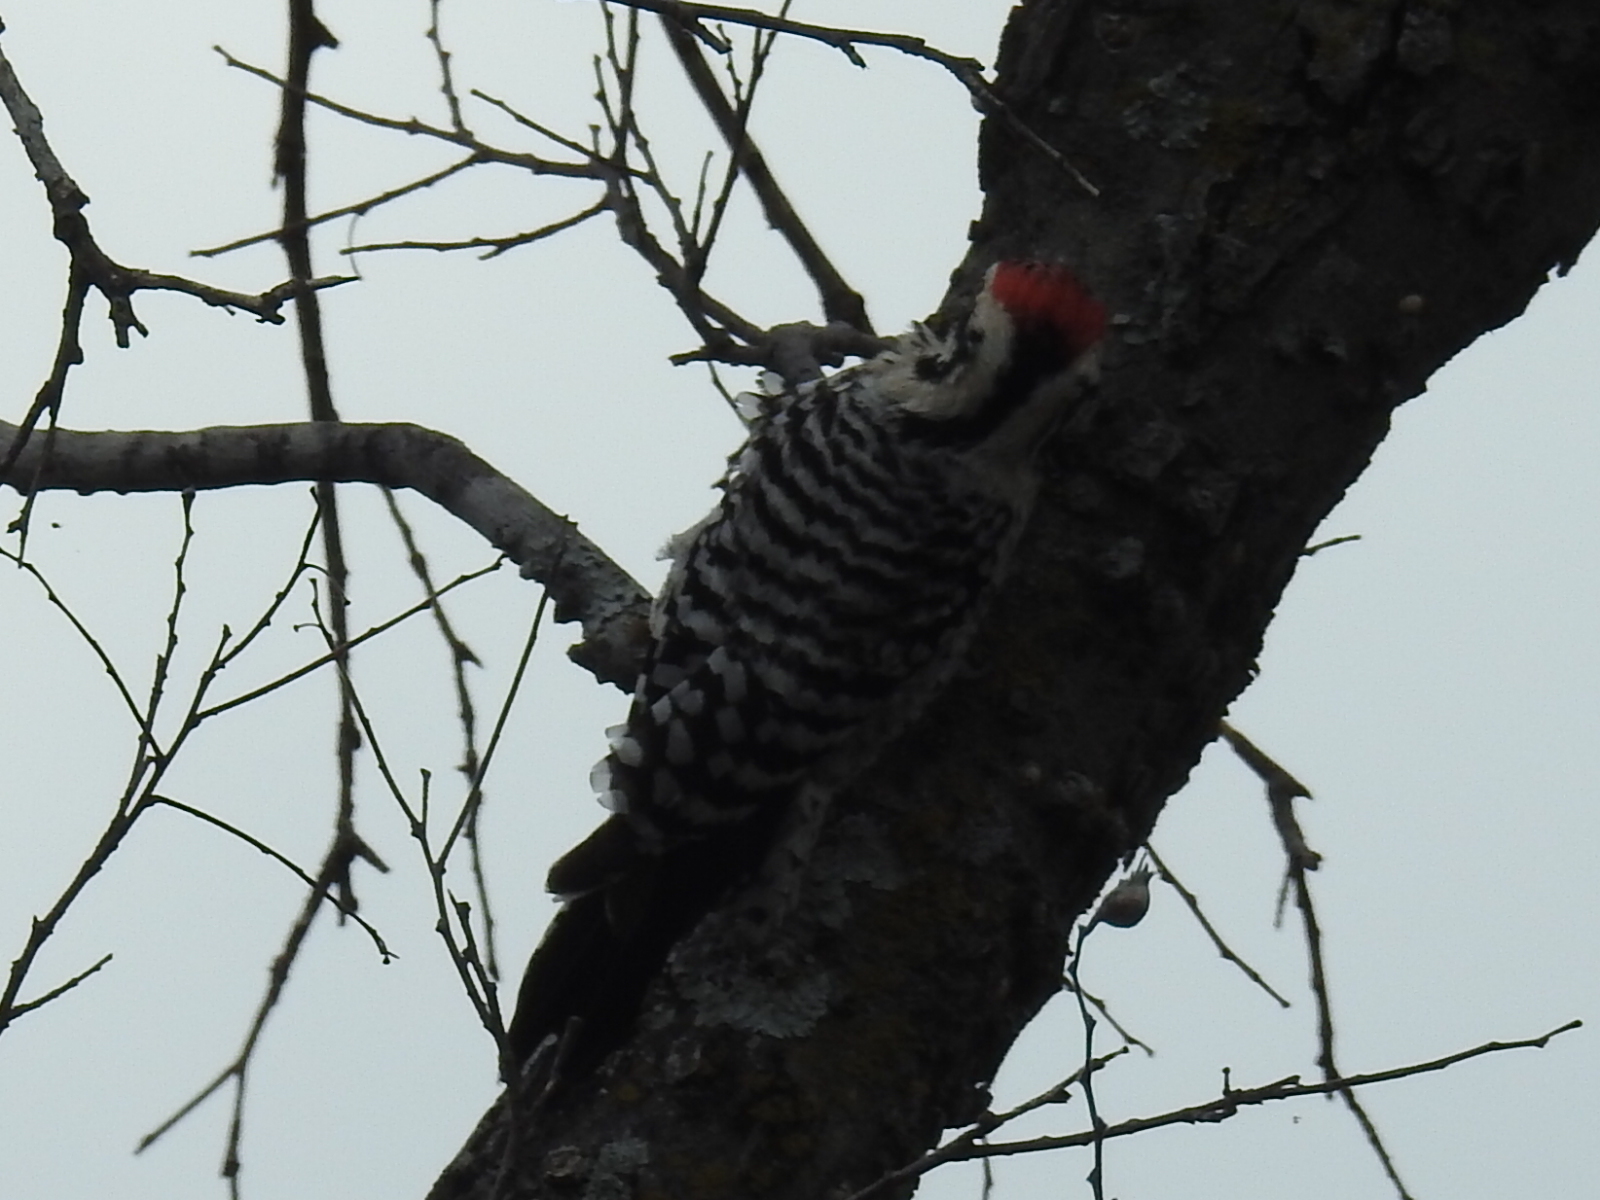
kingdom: Animalia
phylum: Chordata
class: Aves
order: Piciformes
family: Picidae
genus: Dryobates
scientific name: Dryobates scalaris
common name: Ladder-backed woodpecker
